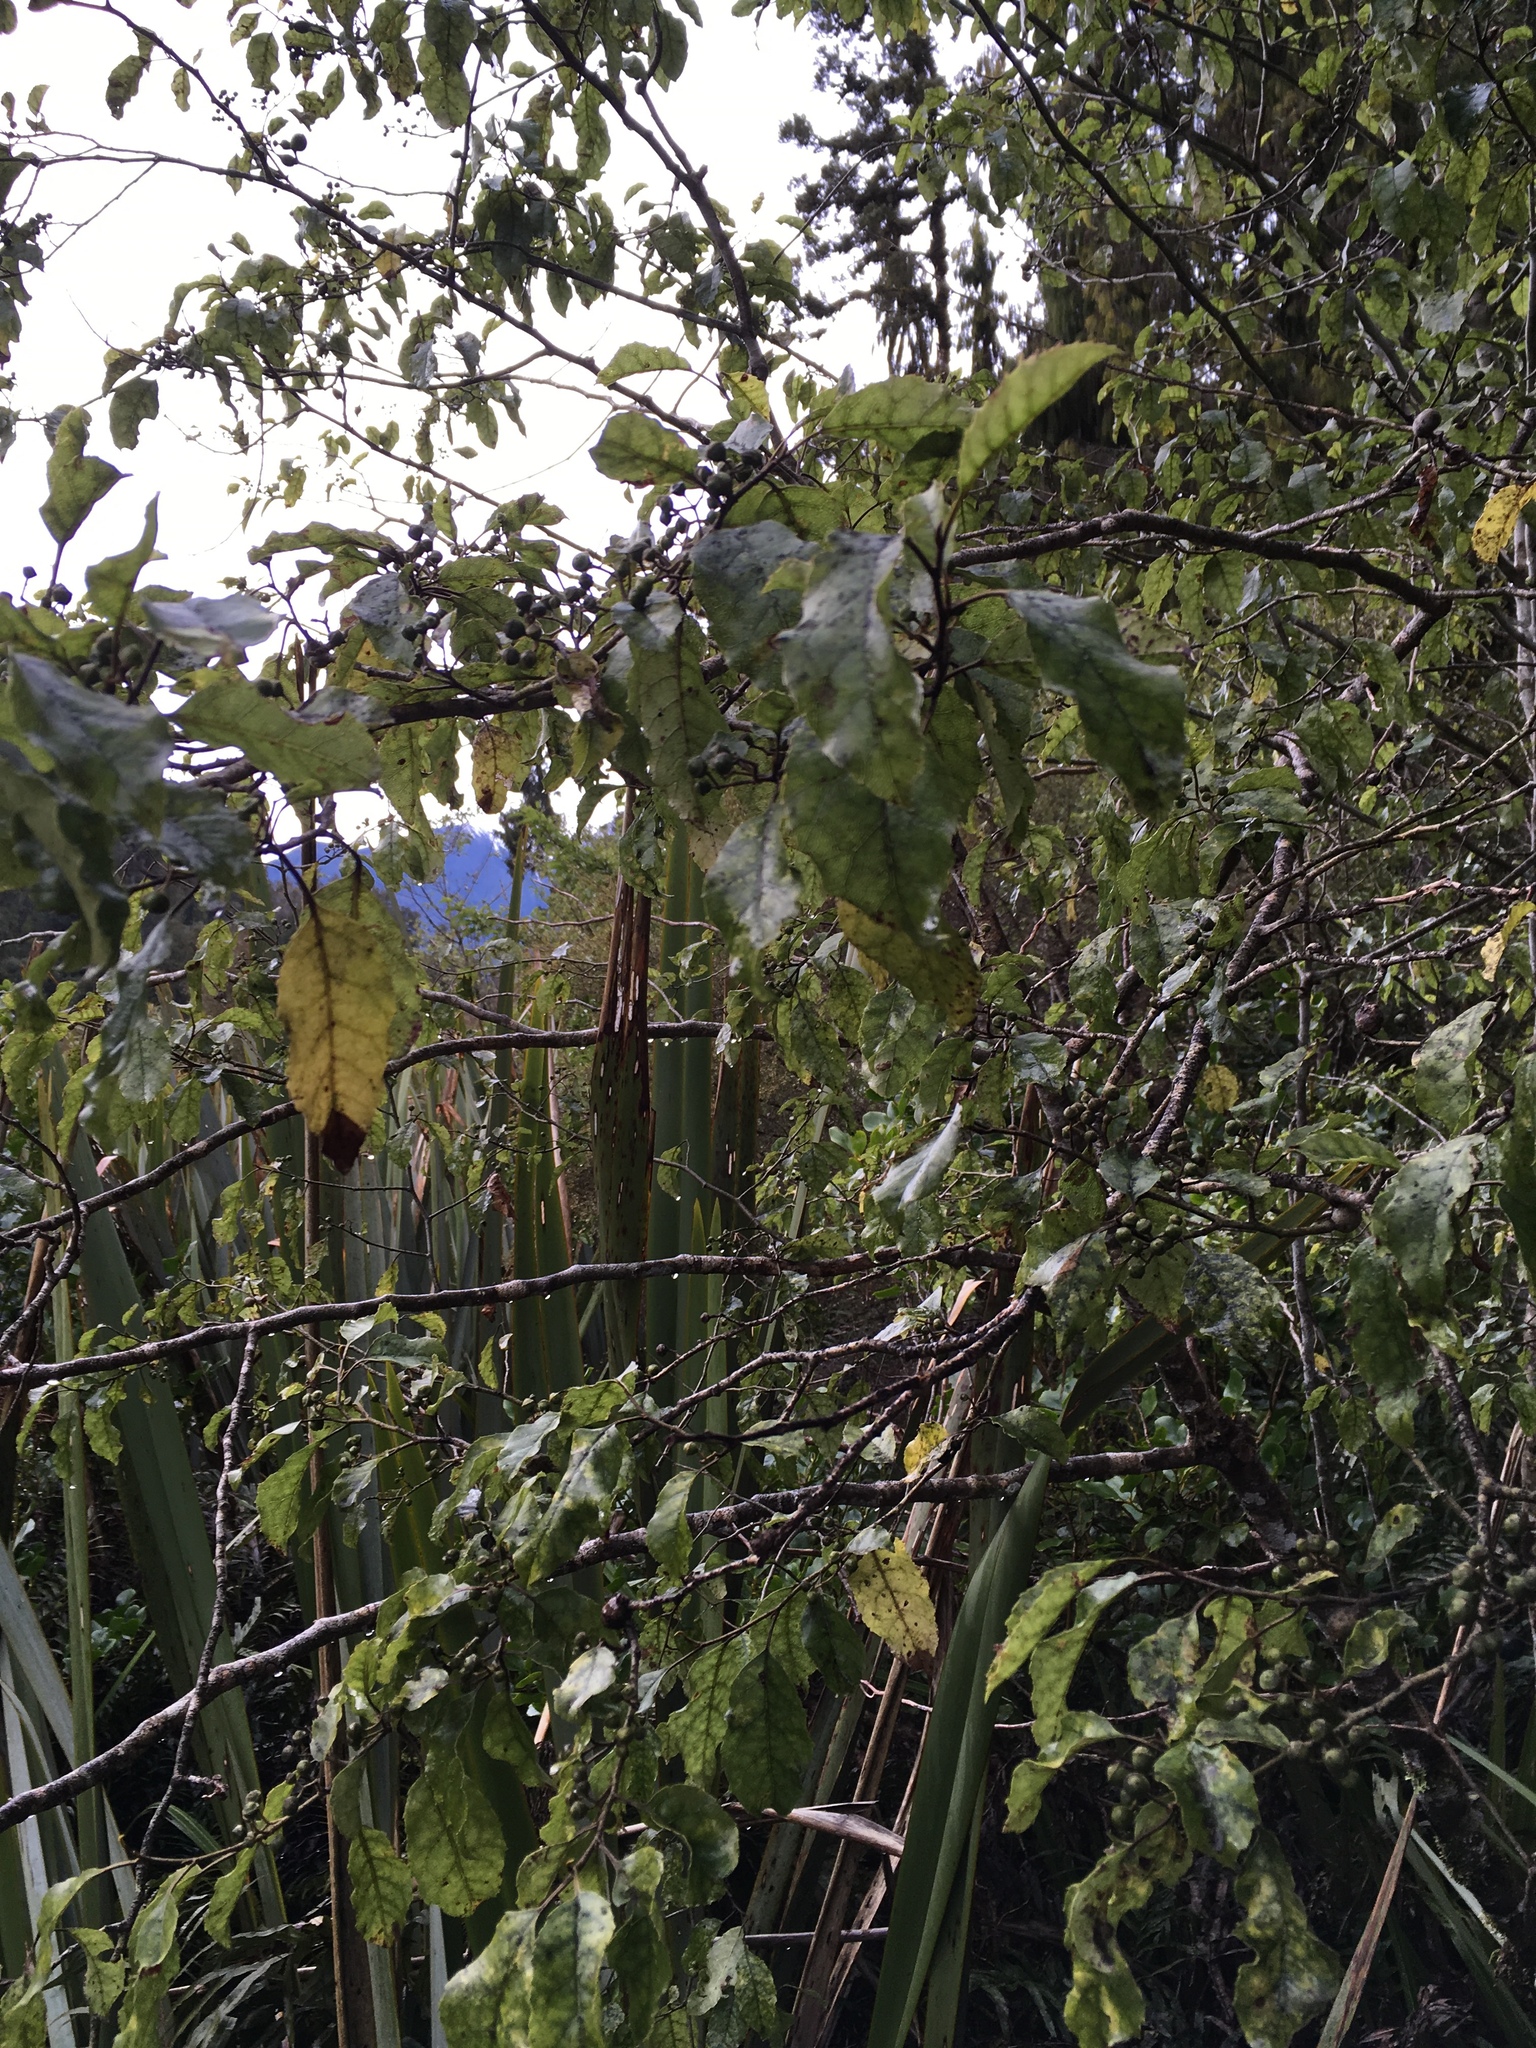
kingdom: Plantae
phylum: Tracheophyta
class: Magnoliopsida
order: Asterales
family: Rousseaceae
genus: Carpodetus
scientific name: Carpodetus serratus
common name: White mapau
